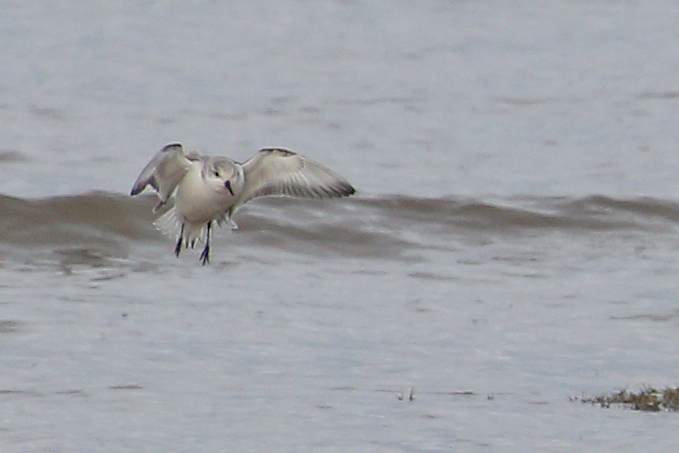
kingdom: Animalia
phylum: Chordata
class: Aves
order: Charadriiformes
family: Scolopacidae
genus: Calidris
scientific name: Calidris alba
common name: Sanderling
